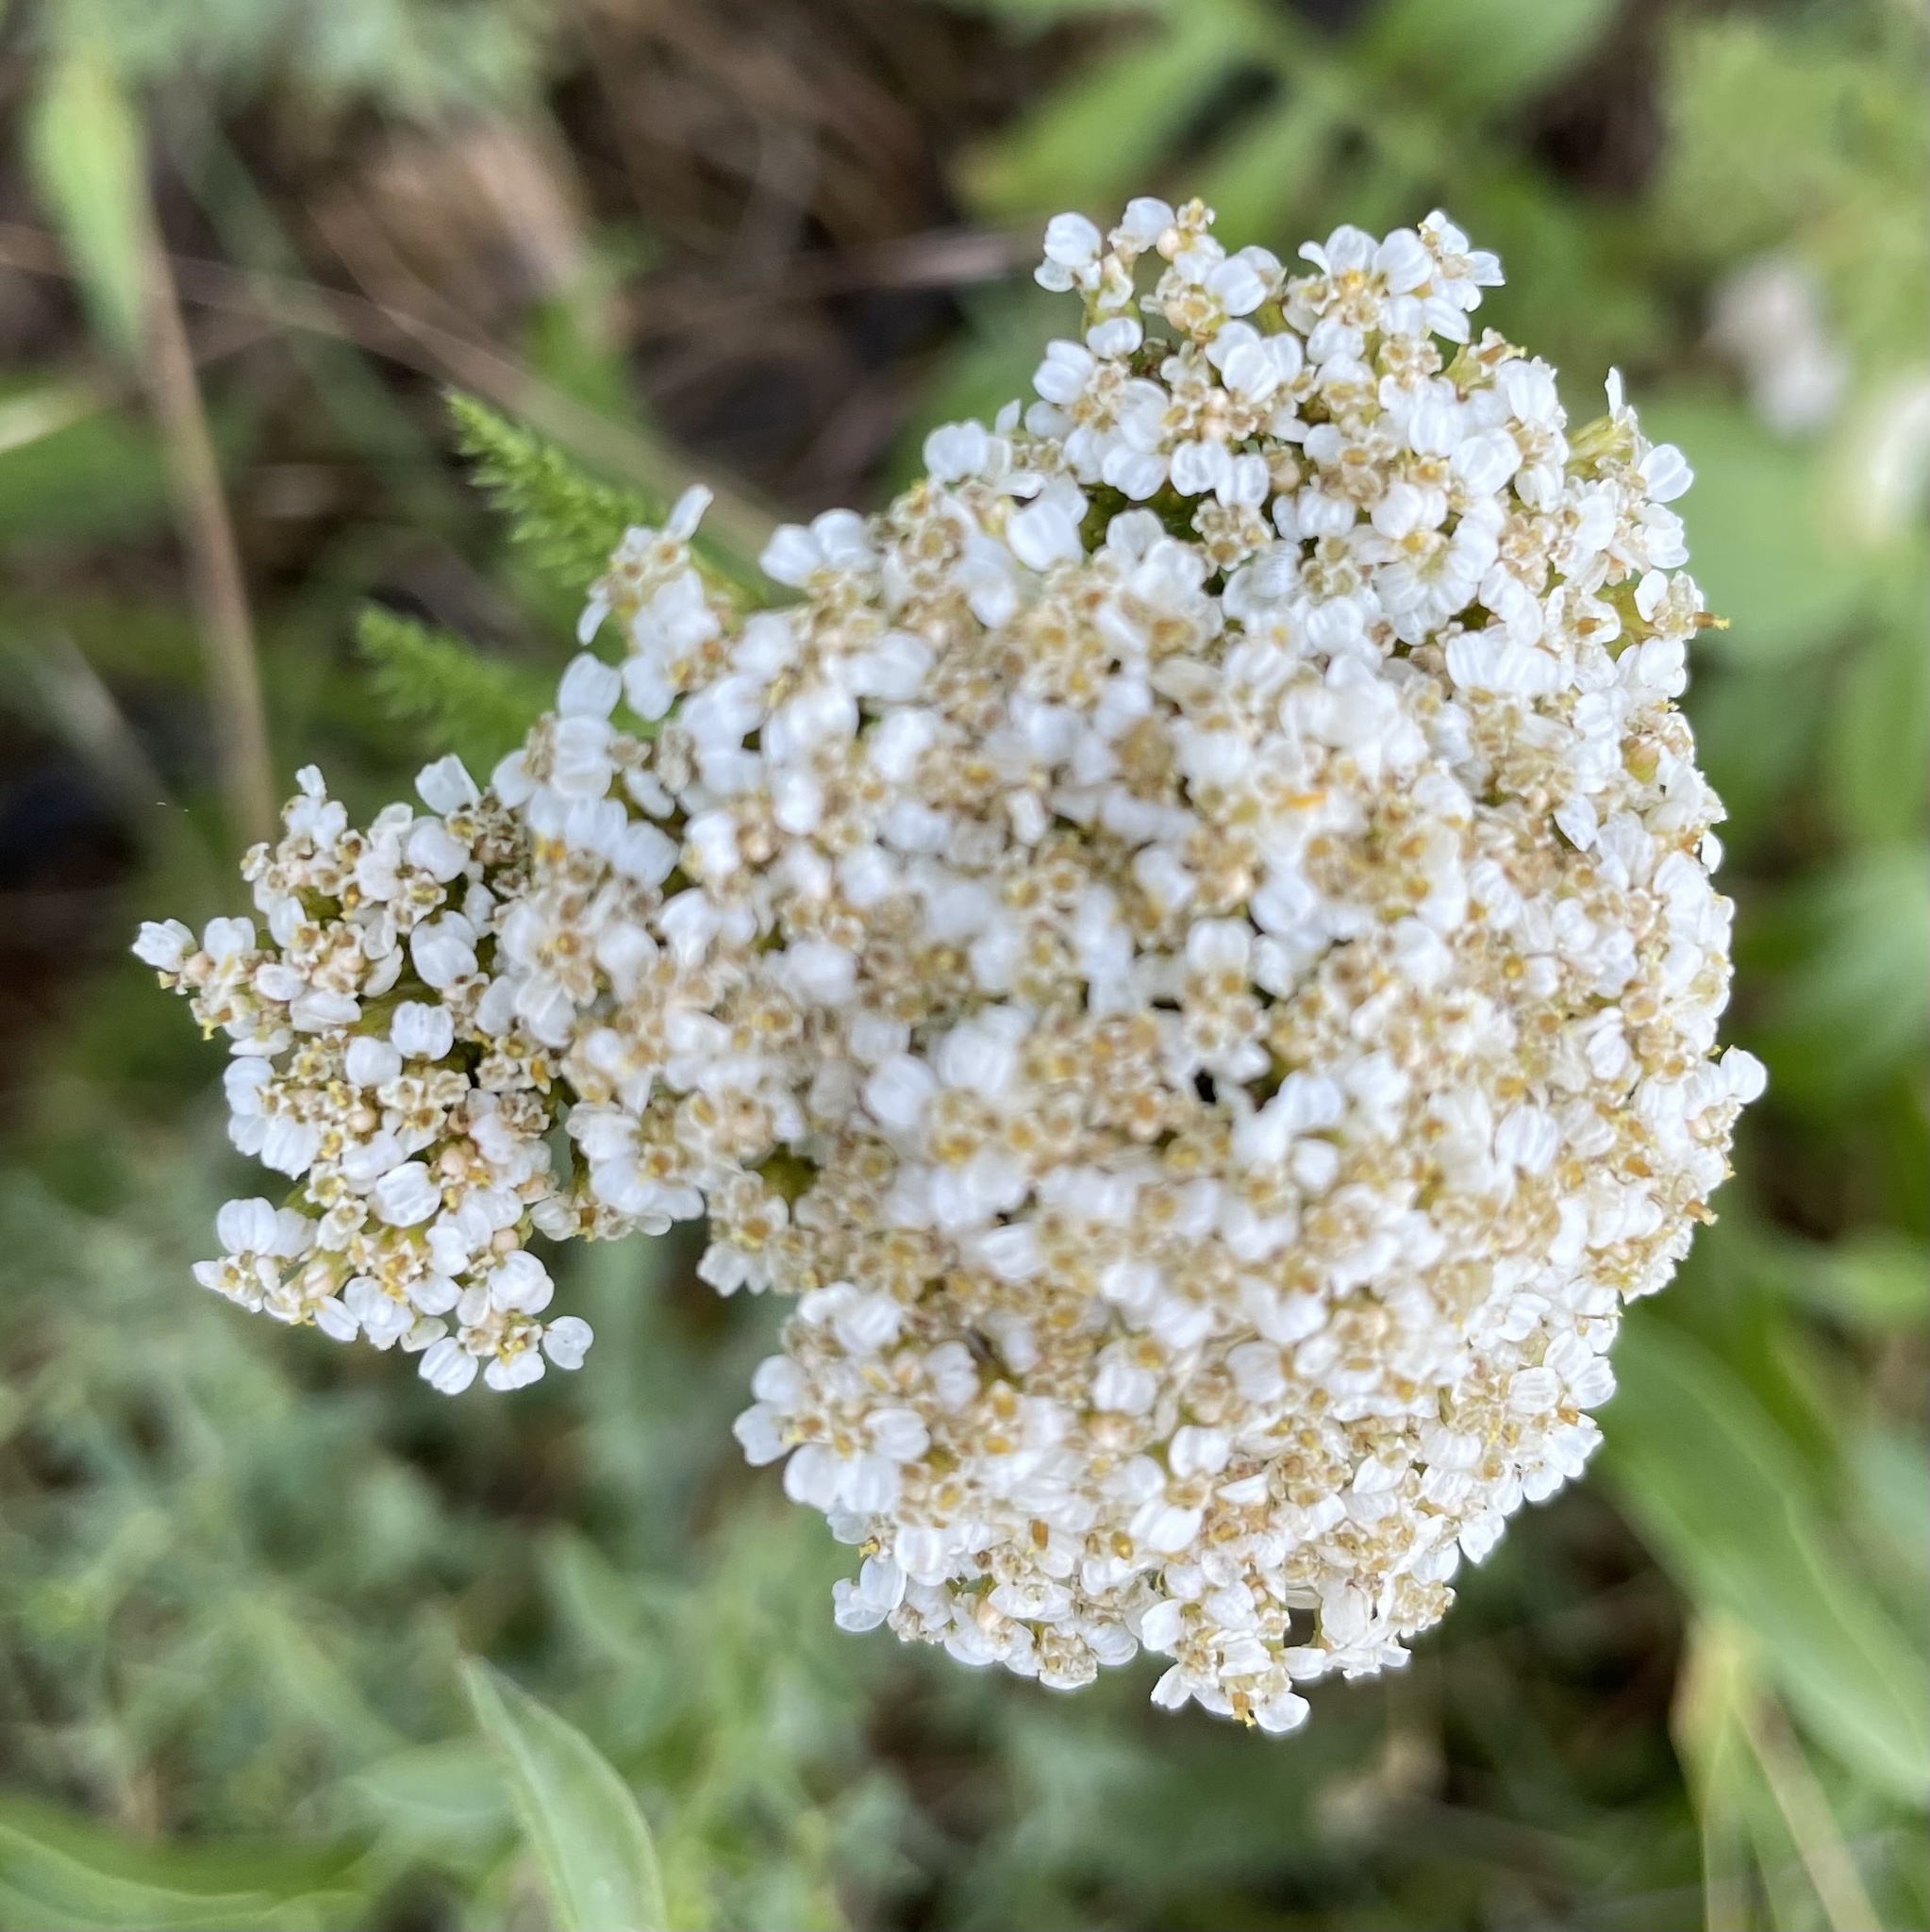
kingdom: Plantae
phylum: Tracheophyta
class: Magnoliopsida
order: Asterales
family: Asteraceae
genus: Achillea
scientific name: Achillea millefolium
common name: Yarrow
